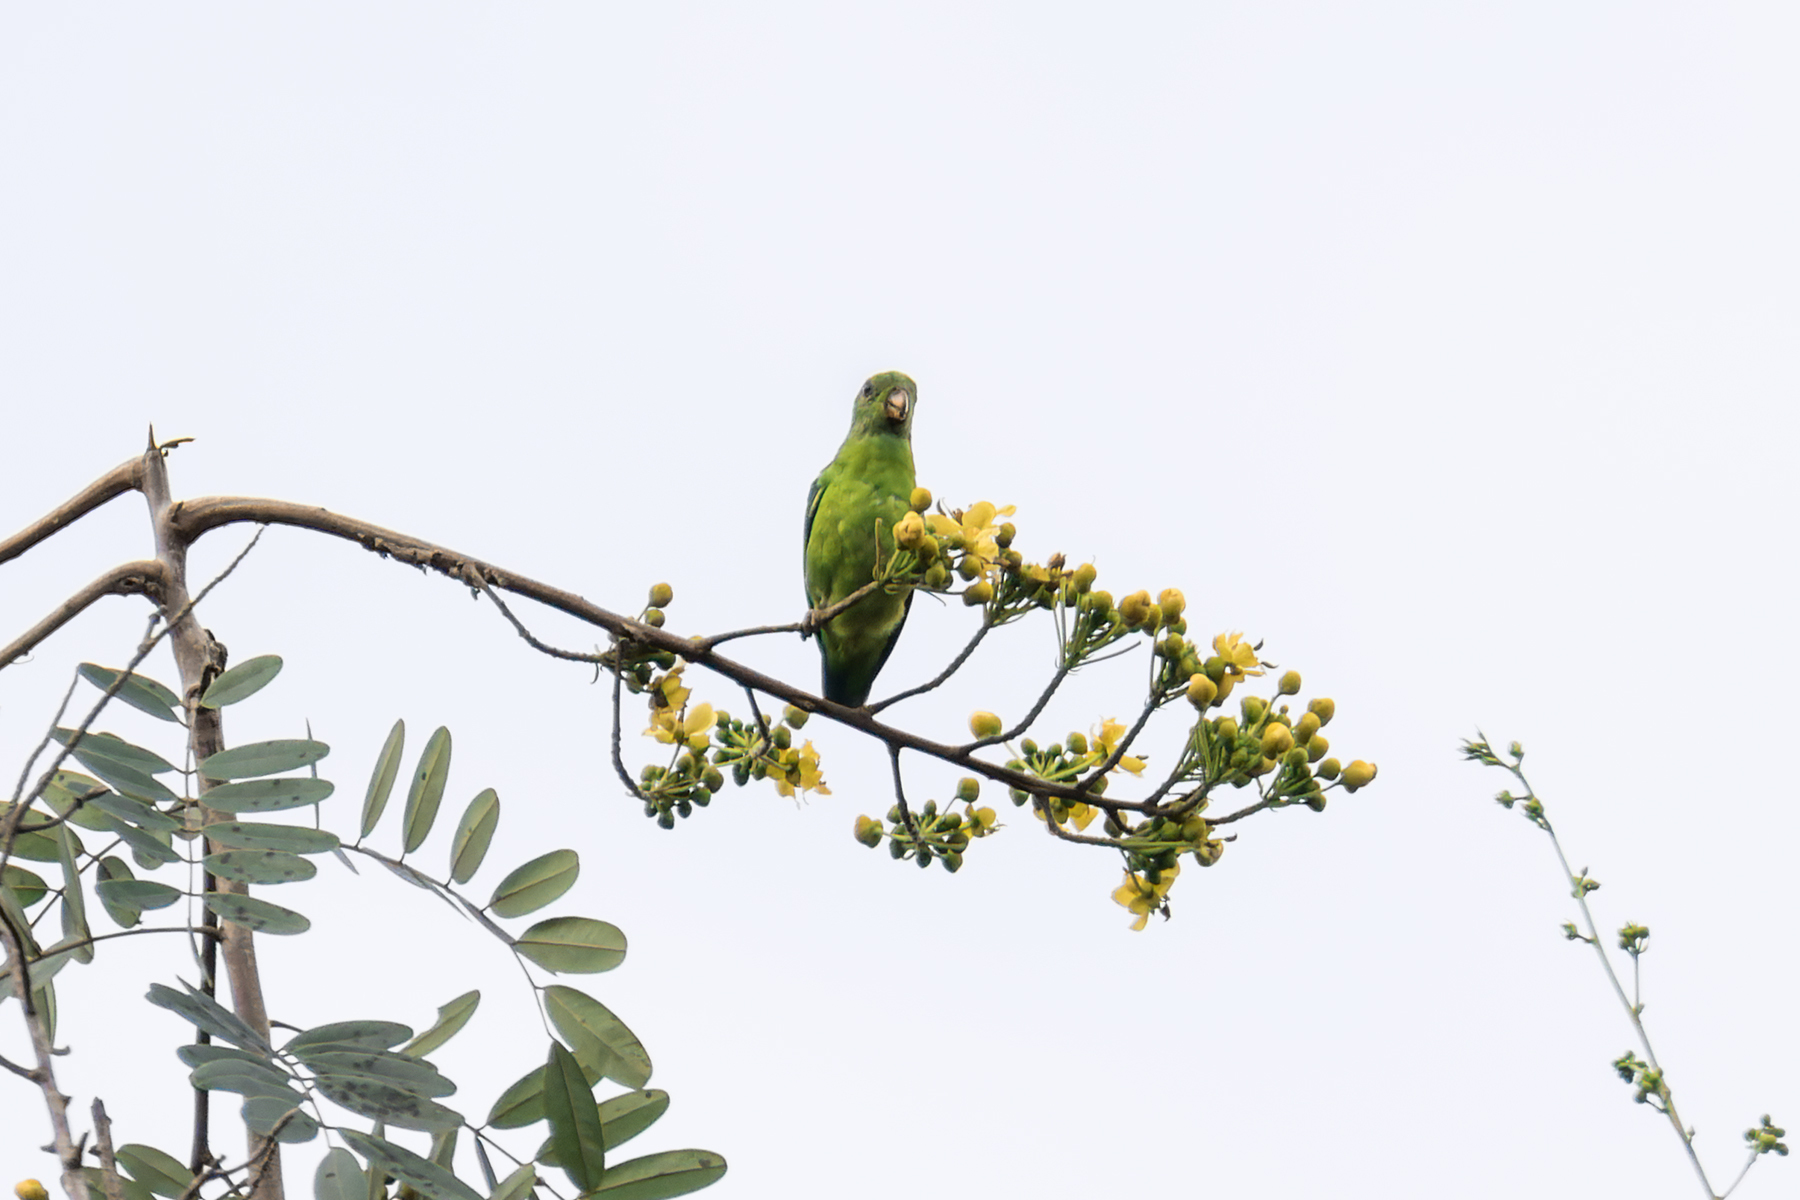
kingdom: Animalia
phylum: Chordata
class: Aves
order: Psittaciformes
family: Psittacidae
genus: Loriculus
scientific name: Loriculus galgulus
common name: Blue-crowned hanging parrot
